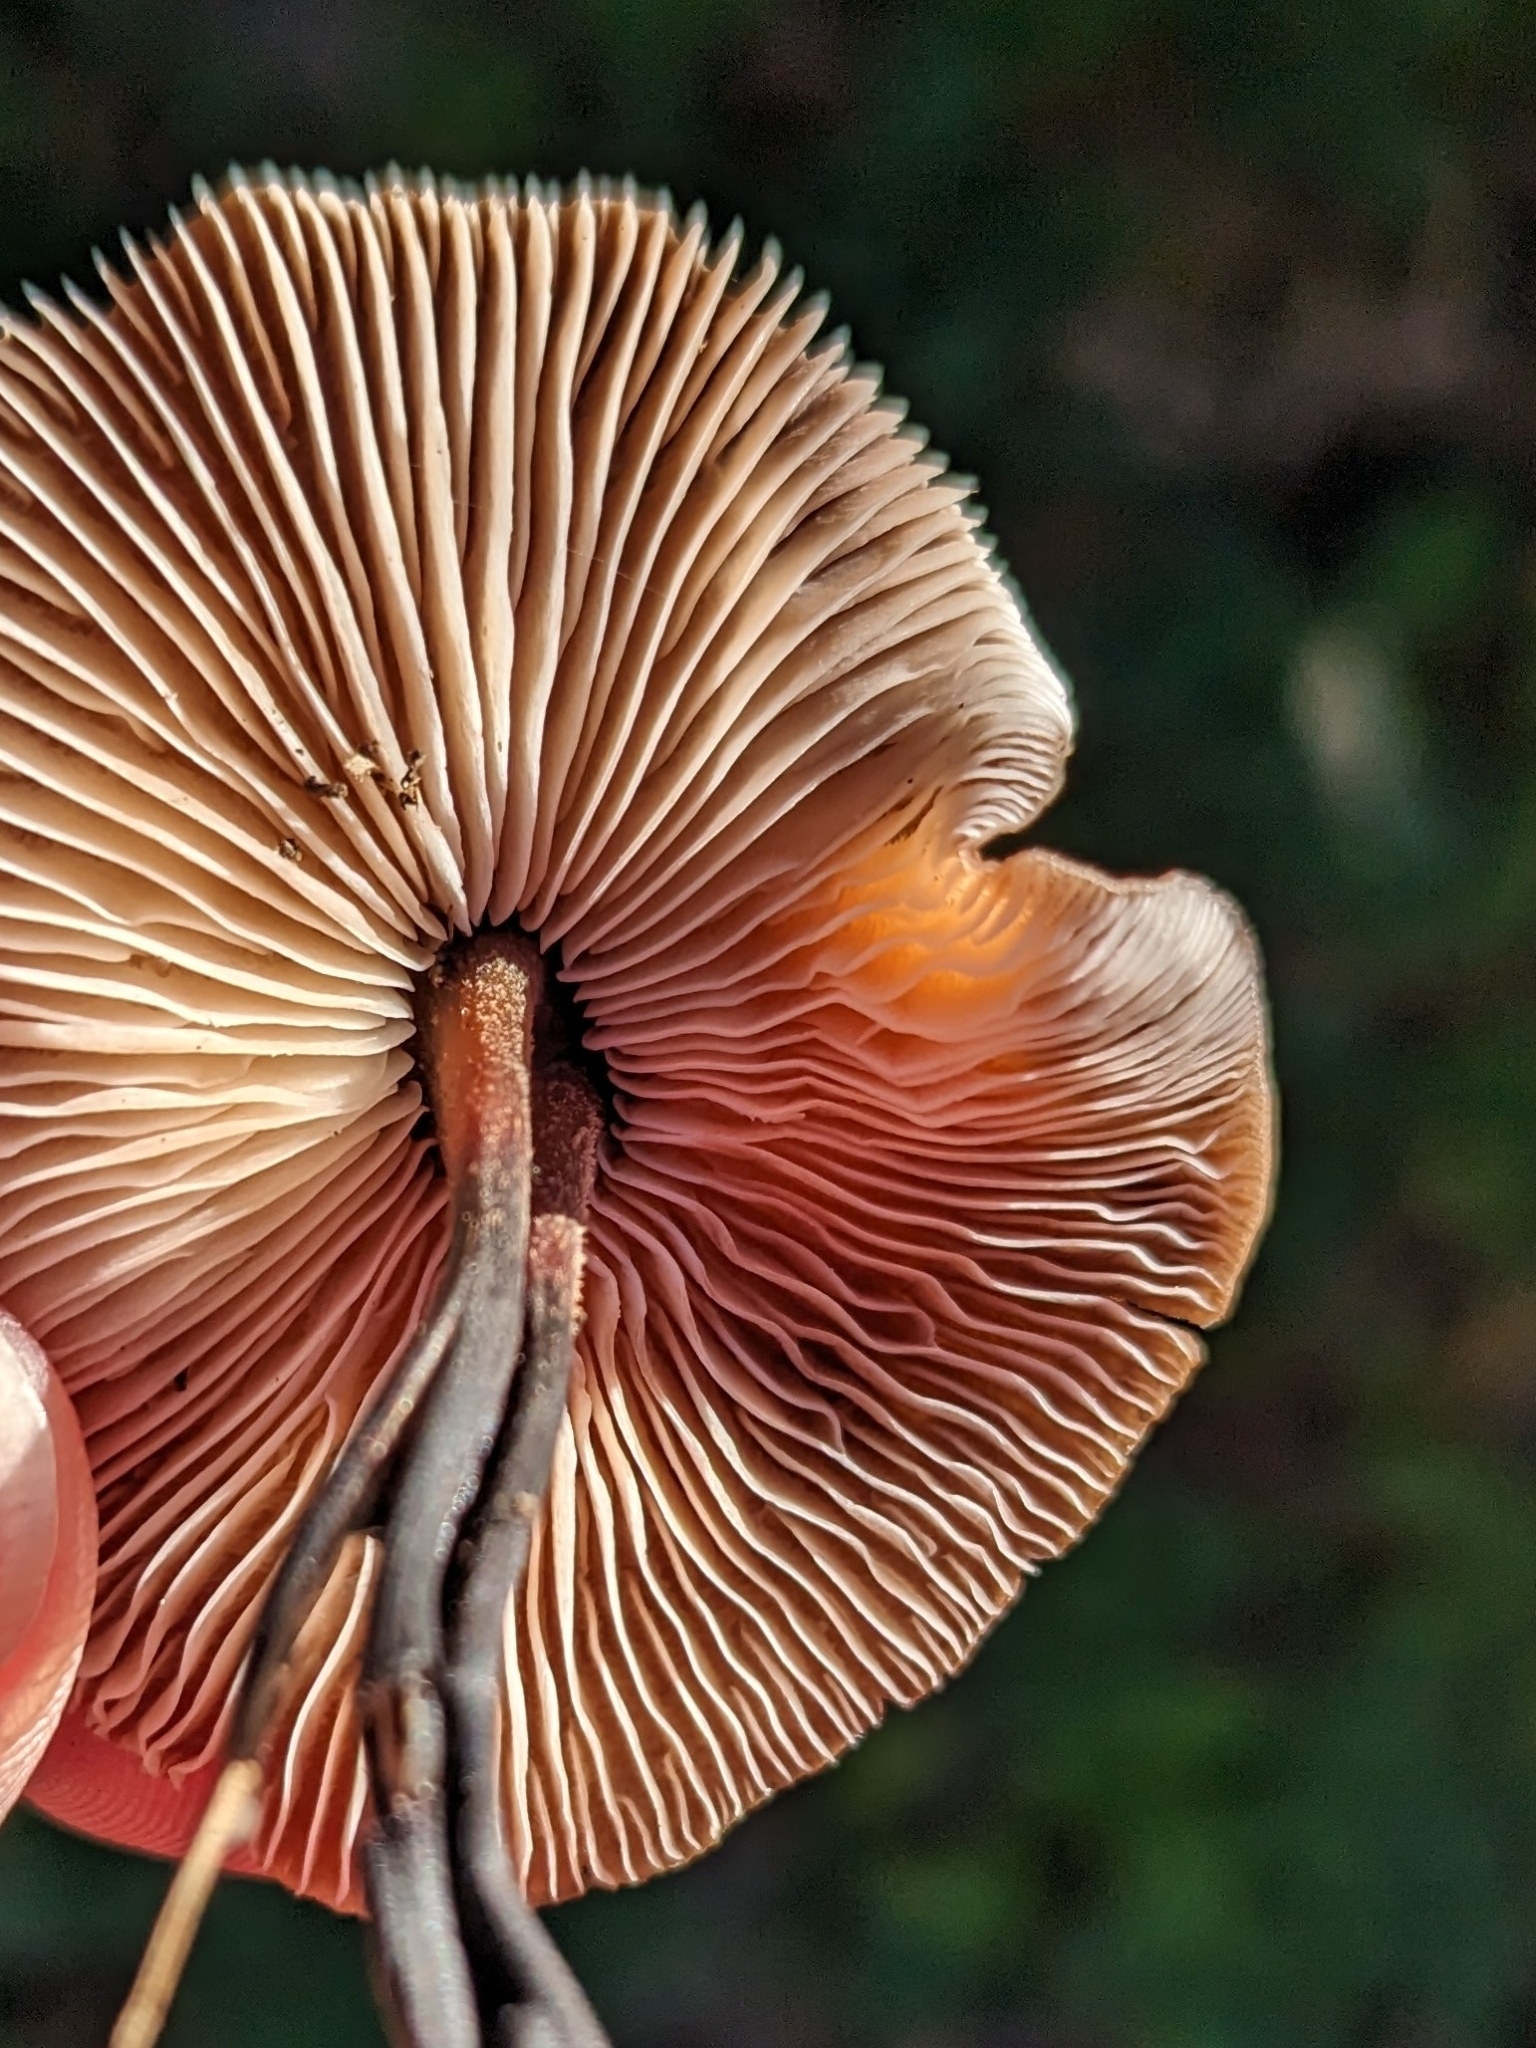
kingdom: Fungi
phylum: Basidiomycota
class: Agaricomycetes
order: Agaricales
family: Omphalotaceae
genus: Gymnopus
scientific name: Gymnopus brassicolens
